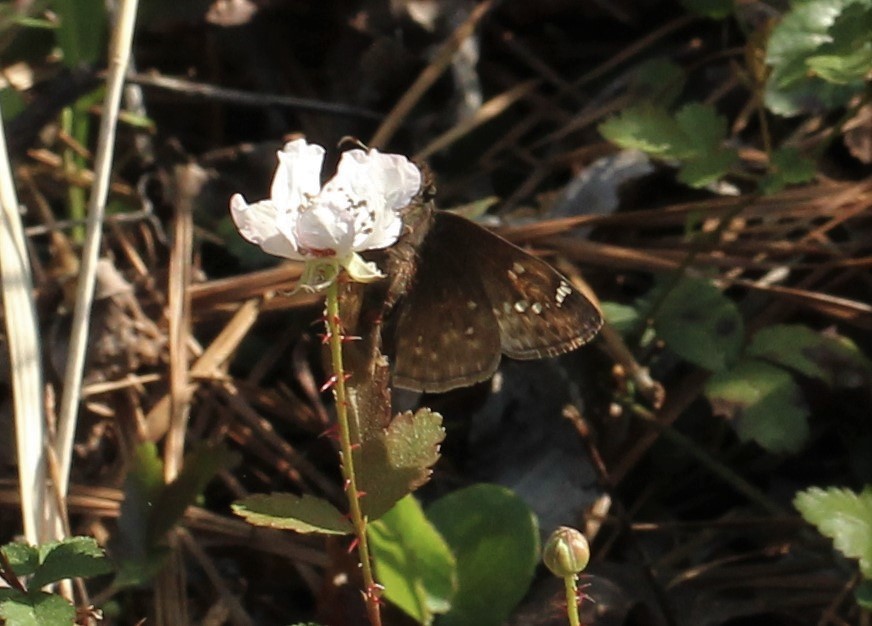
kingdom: Animalia
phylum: Arthropoda
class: Insecta
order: Lepidoptera
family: Hesperiidae
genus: Erynnis
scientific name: Erynnis juvenalis
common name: Juvenal's duskywing
